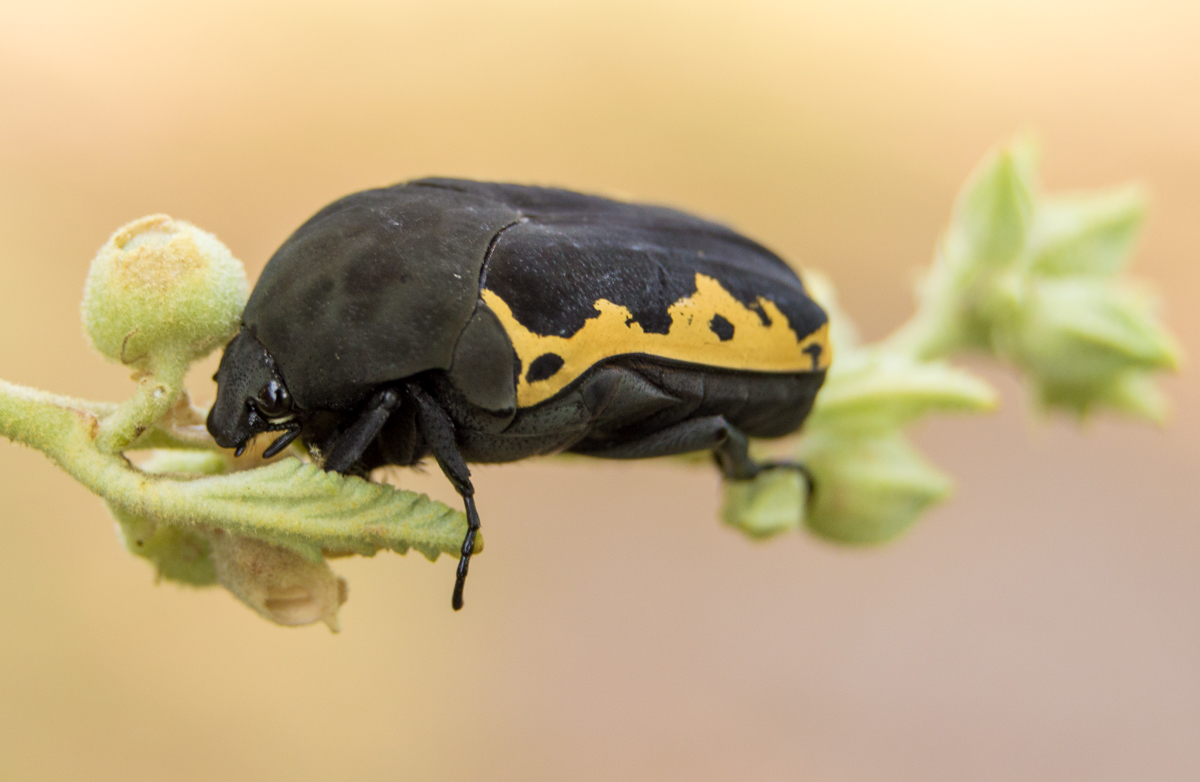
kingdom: Animalia
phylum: Arthropoda
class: Insecta
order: Coleoptera
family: Scarabaeidae
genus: Gymnetis
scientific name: Gymnetis pudibunda
